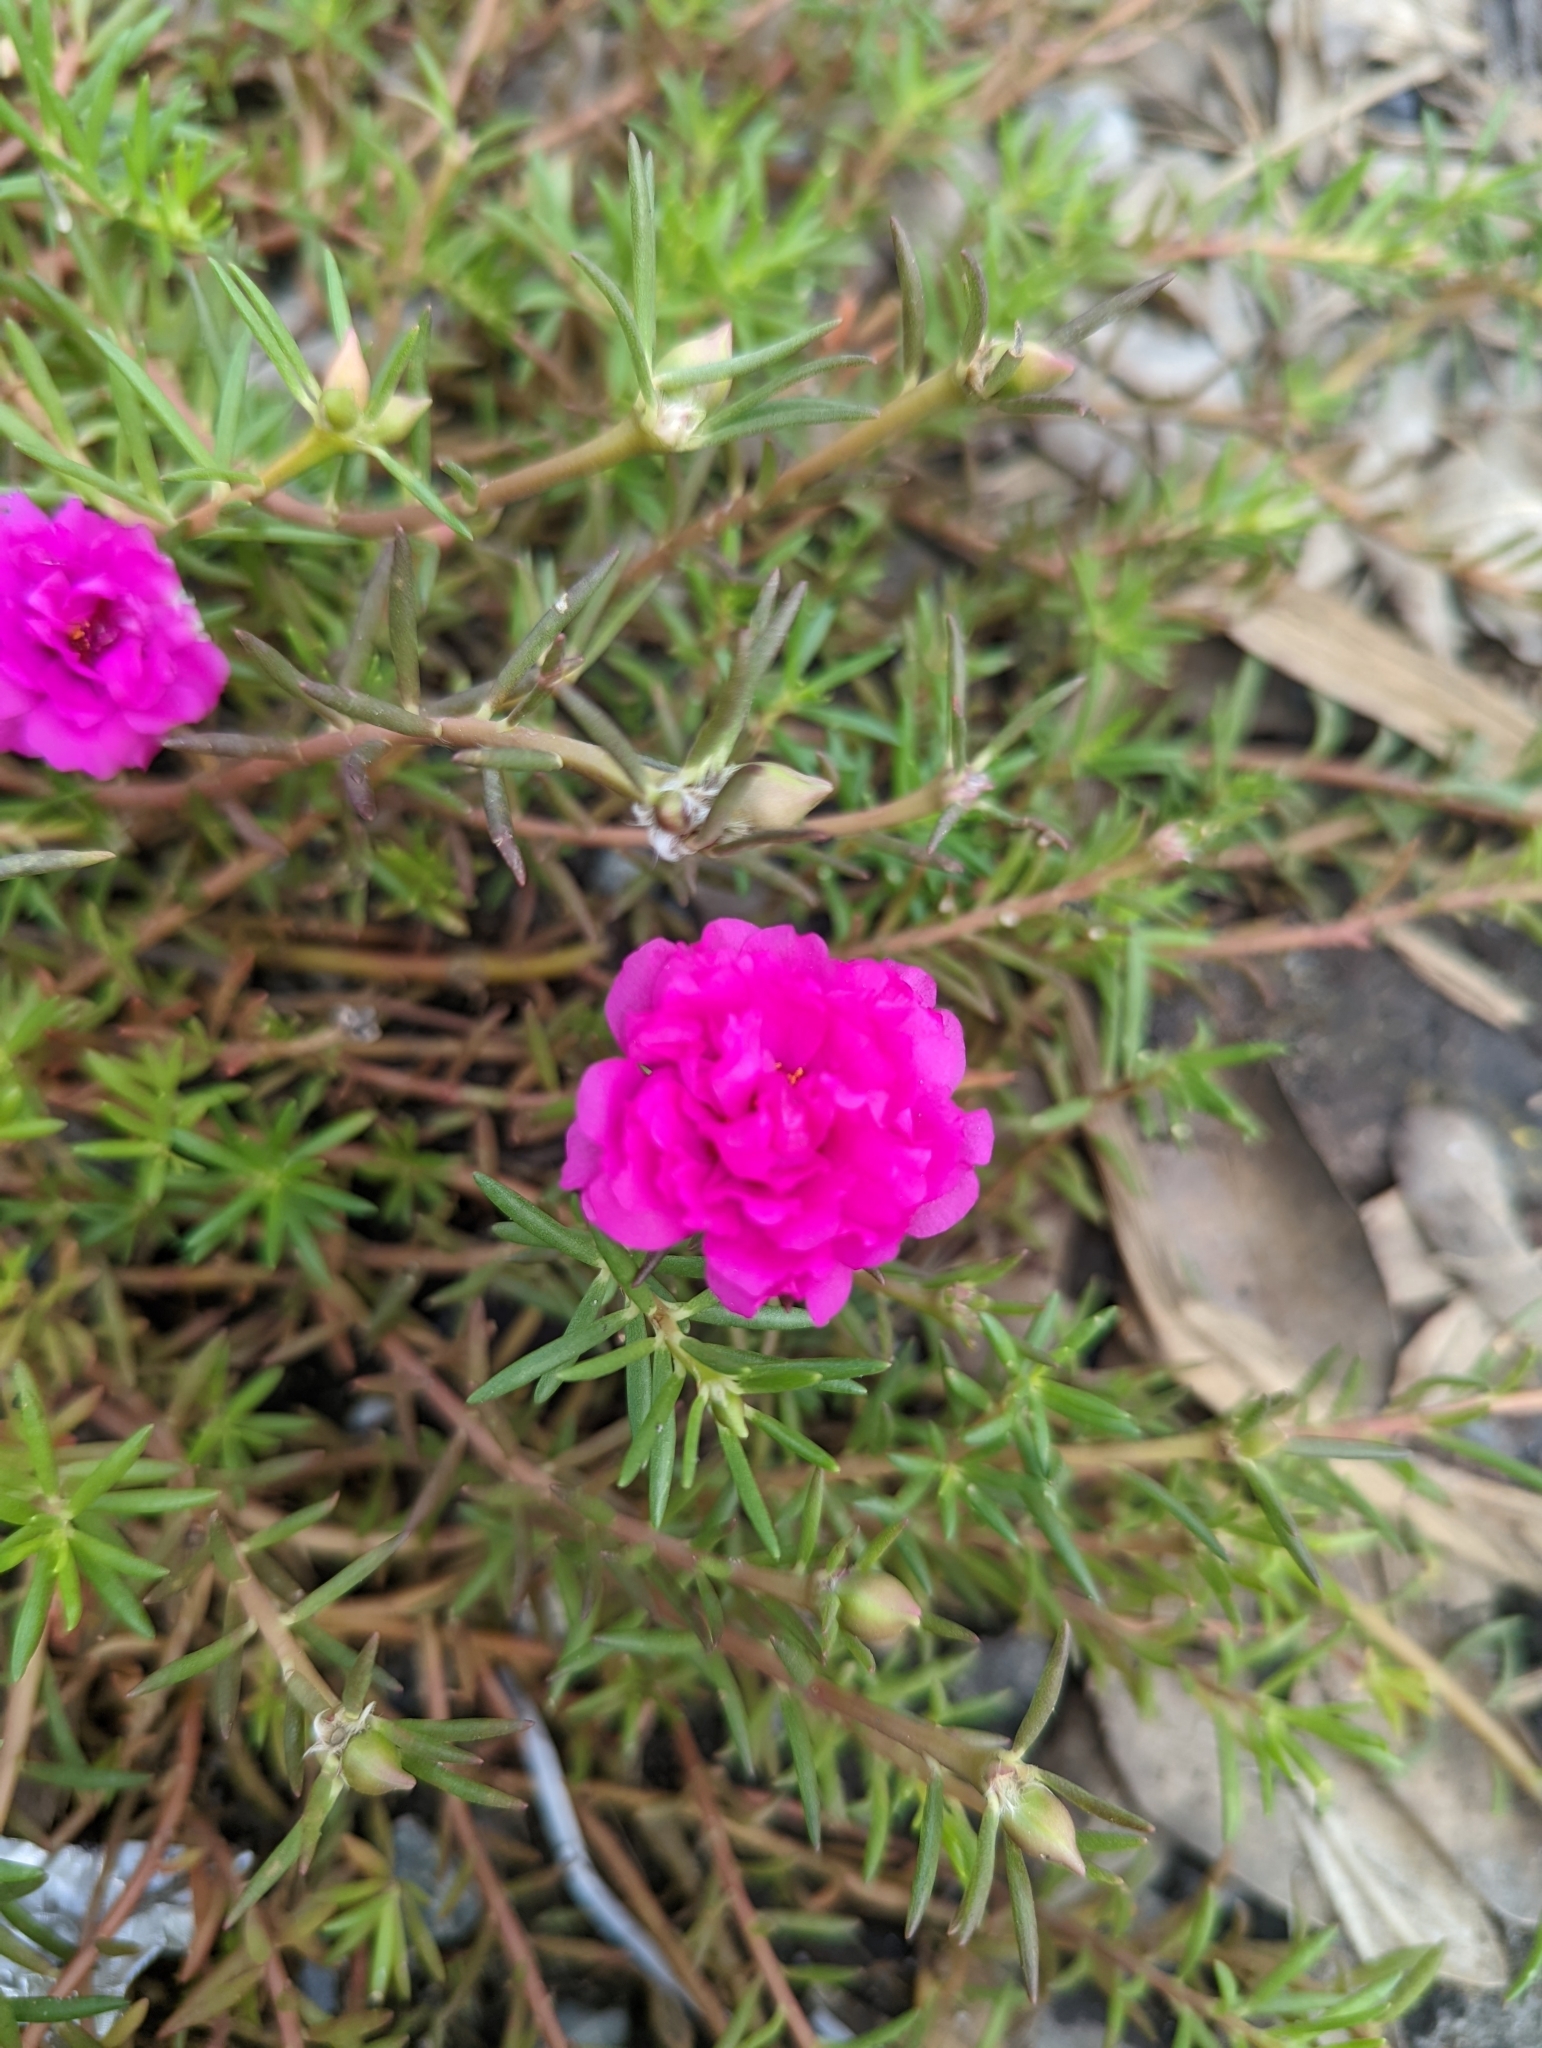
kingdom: Plantae
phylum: Tracheophyta
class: Magnoliopsida
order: Caryophyllales
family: Portulacaceae
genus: Portulaca
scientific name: Portulaca grandiflora
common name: Moss-rose
